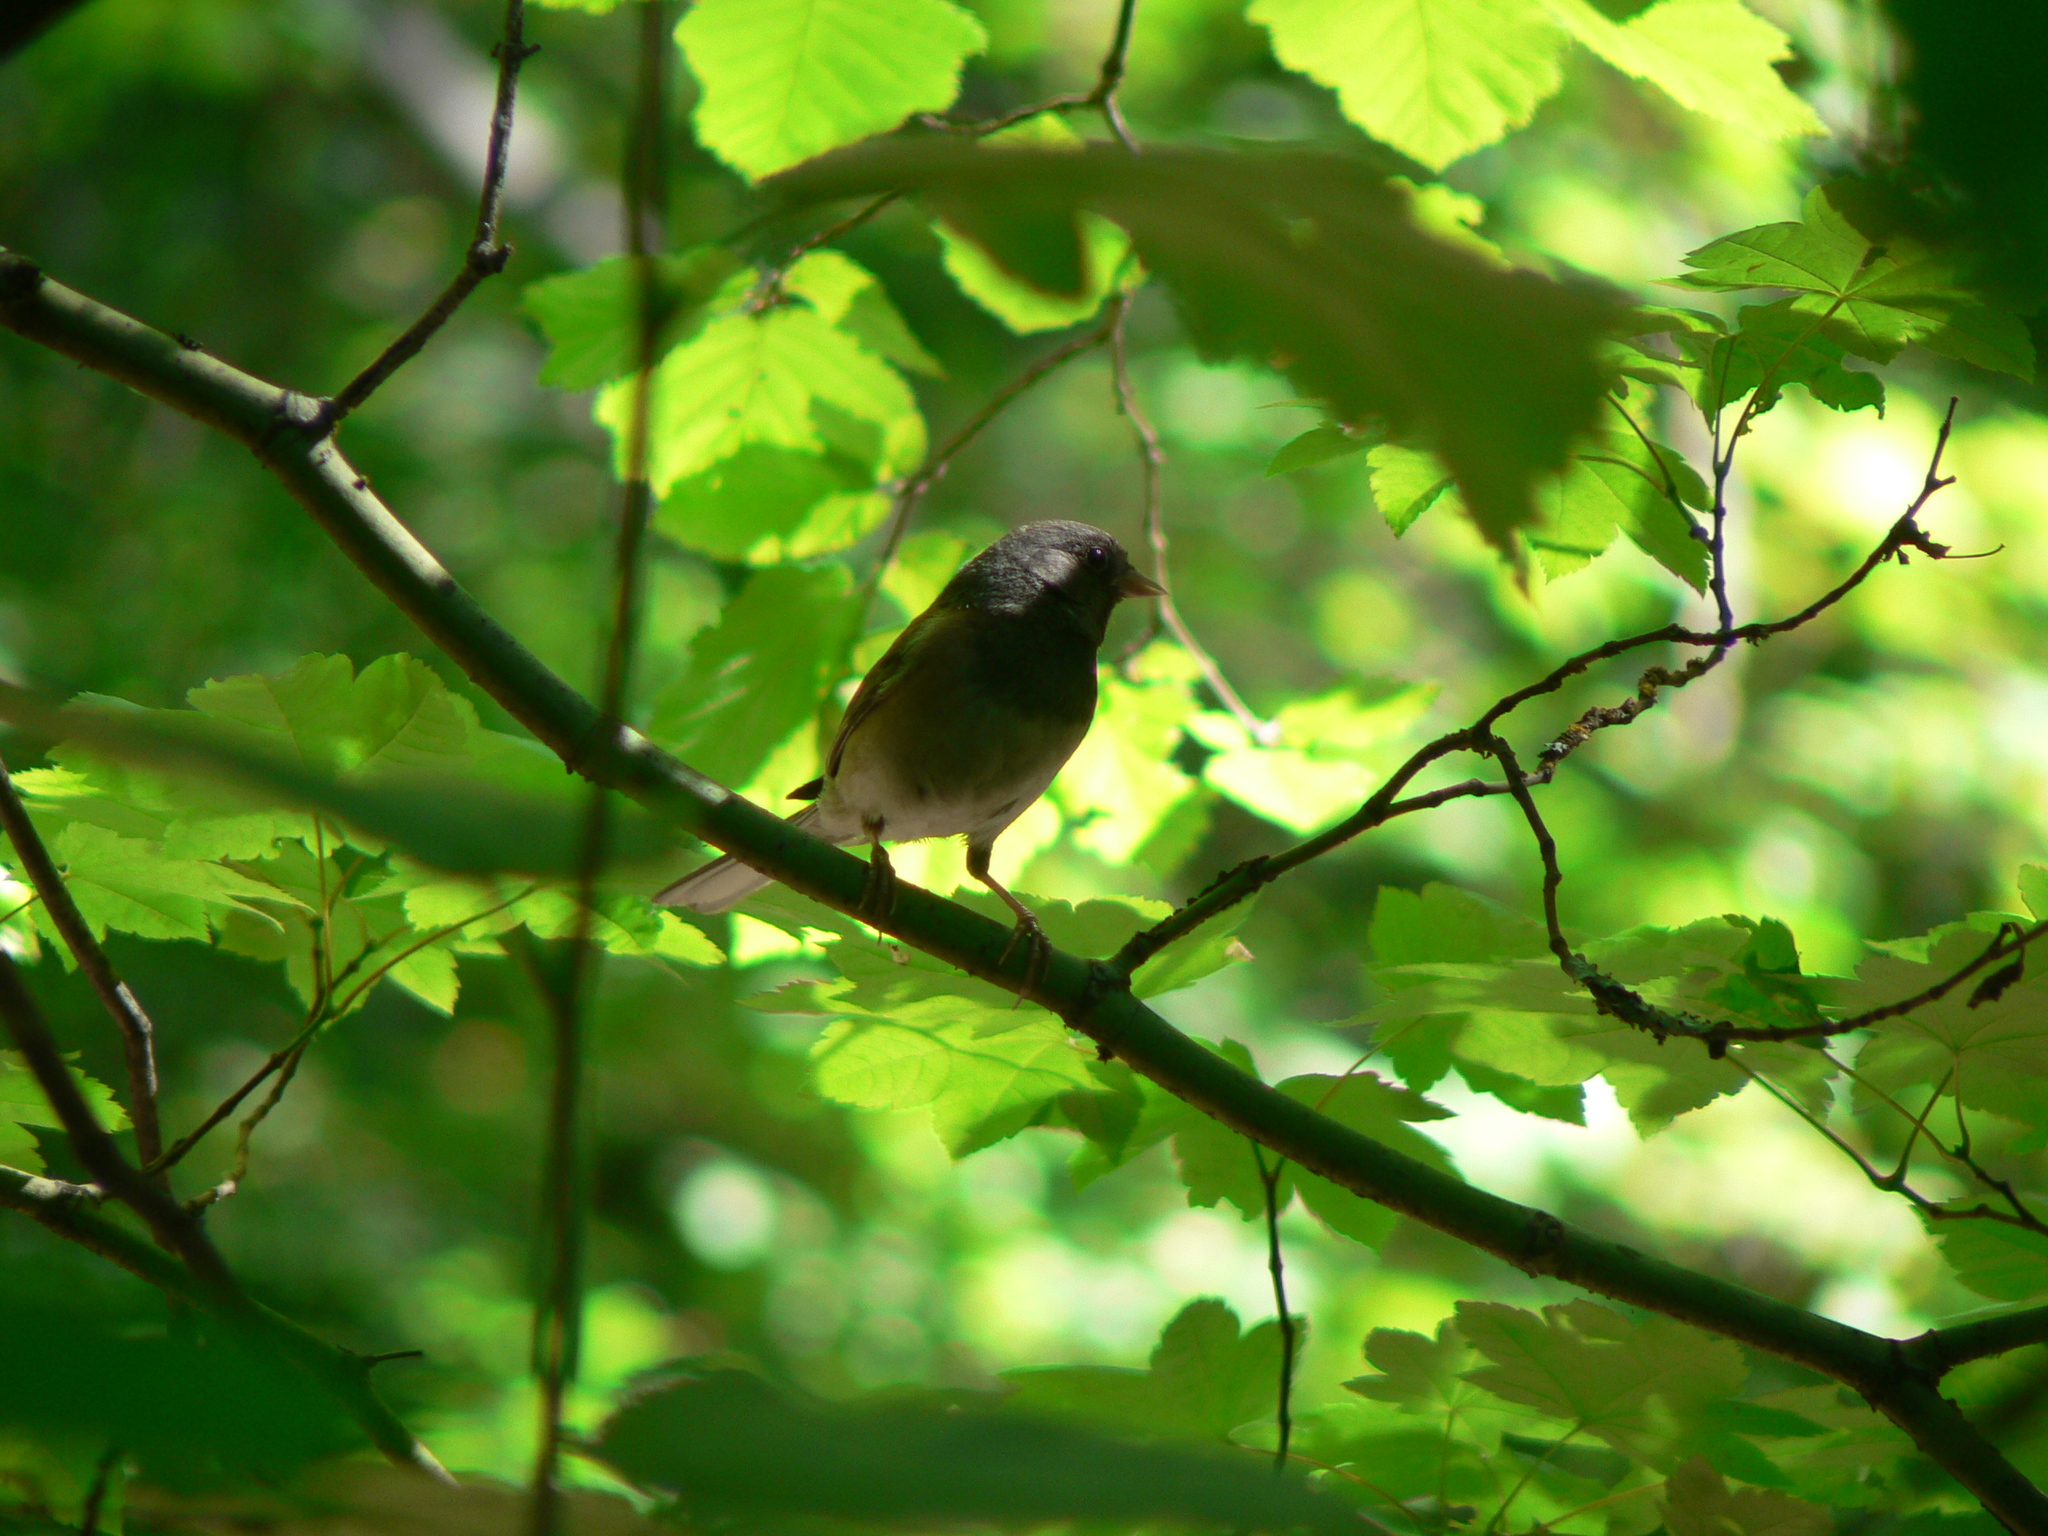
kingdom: Animalia
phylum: Chordata
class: Aves
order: Passeriformes
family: Passerellidae
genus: Junco
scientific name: Junco hyemalis
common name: Dark-eyed junco
